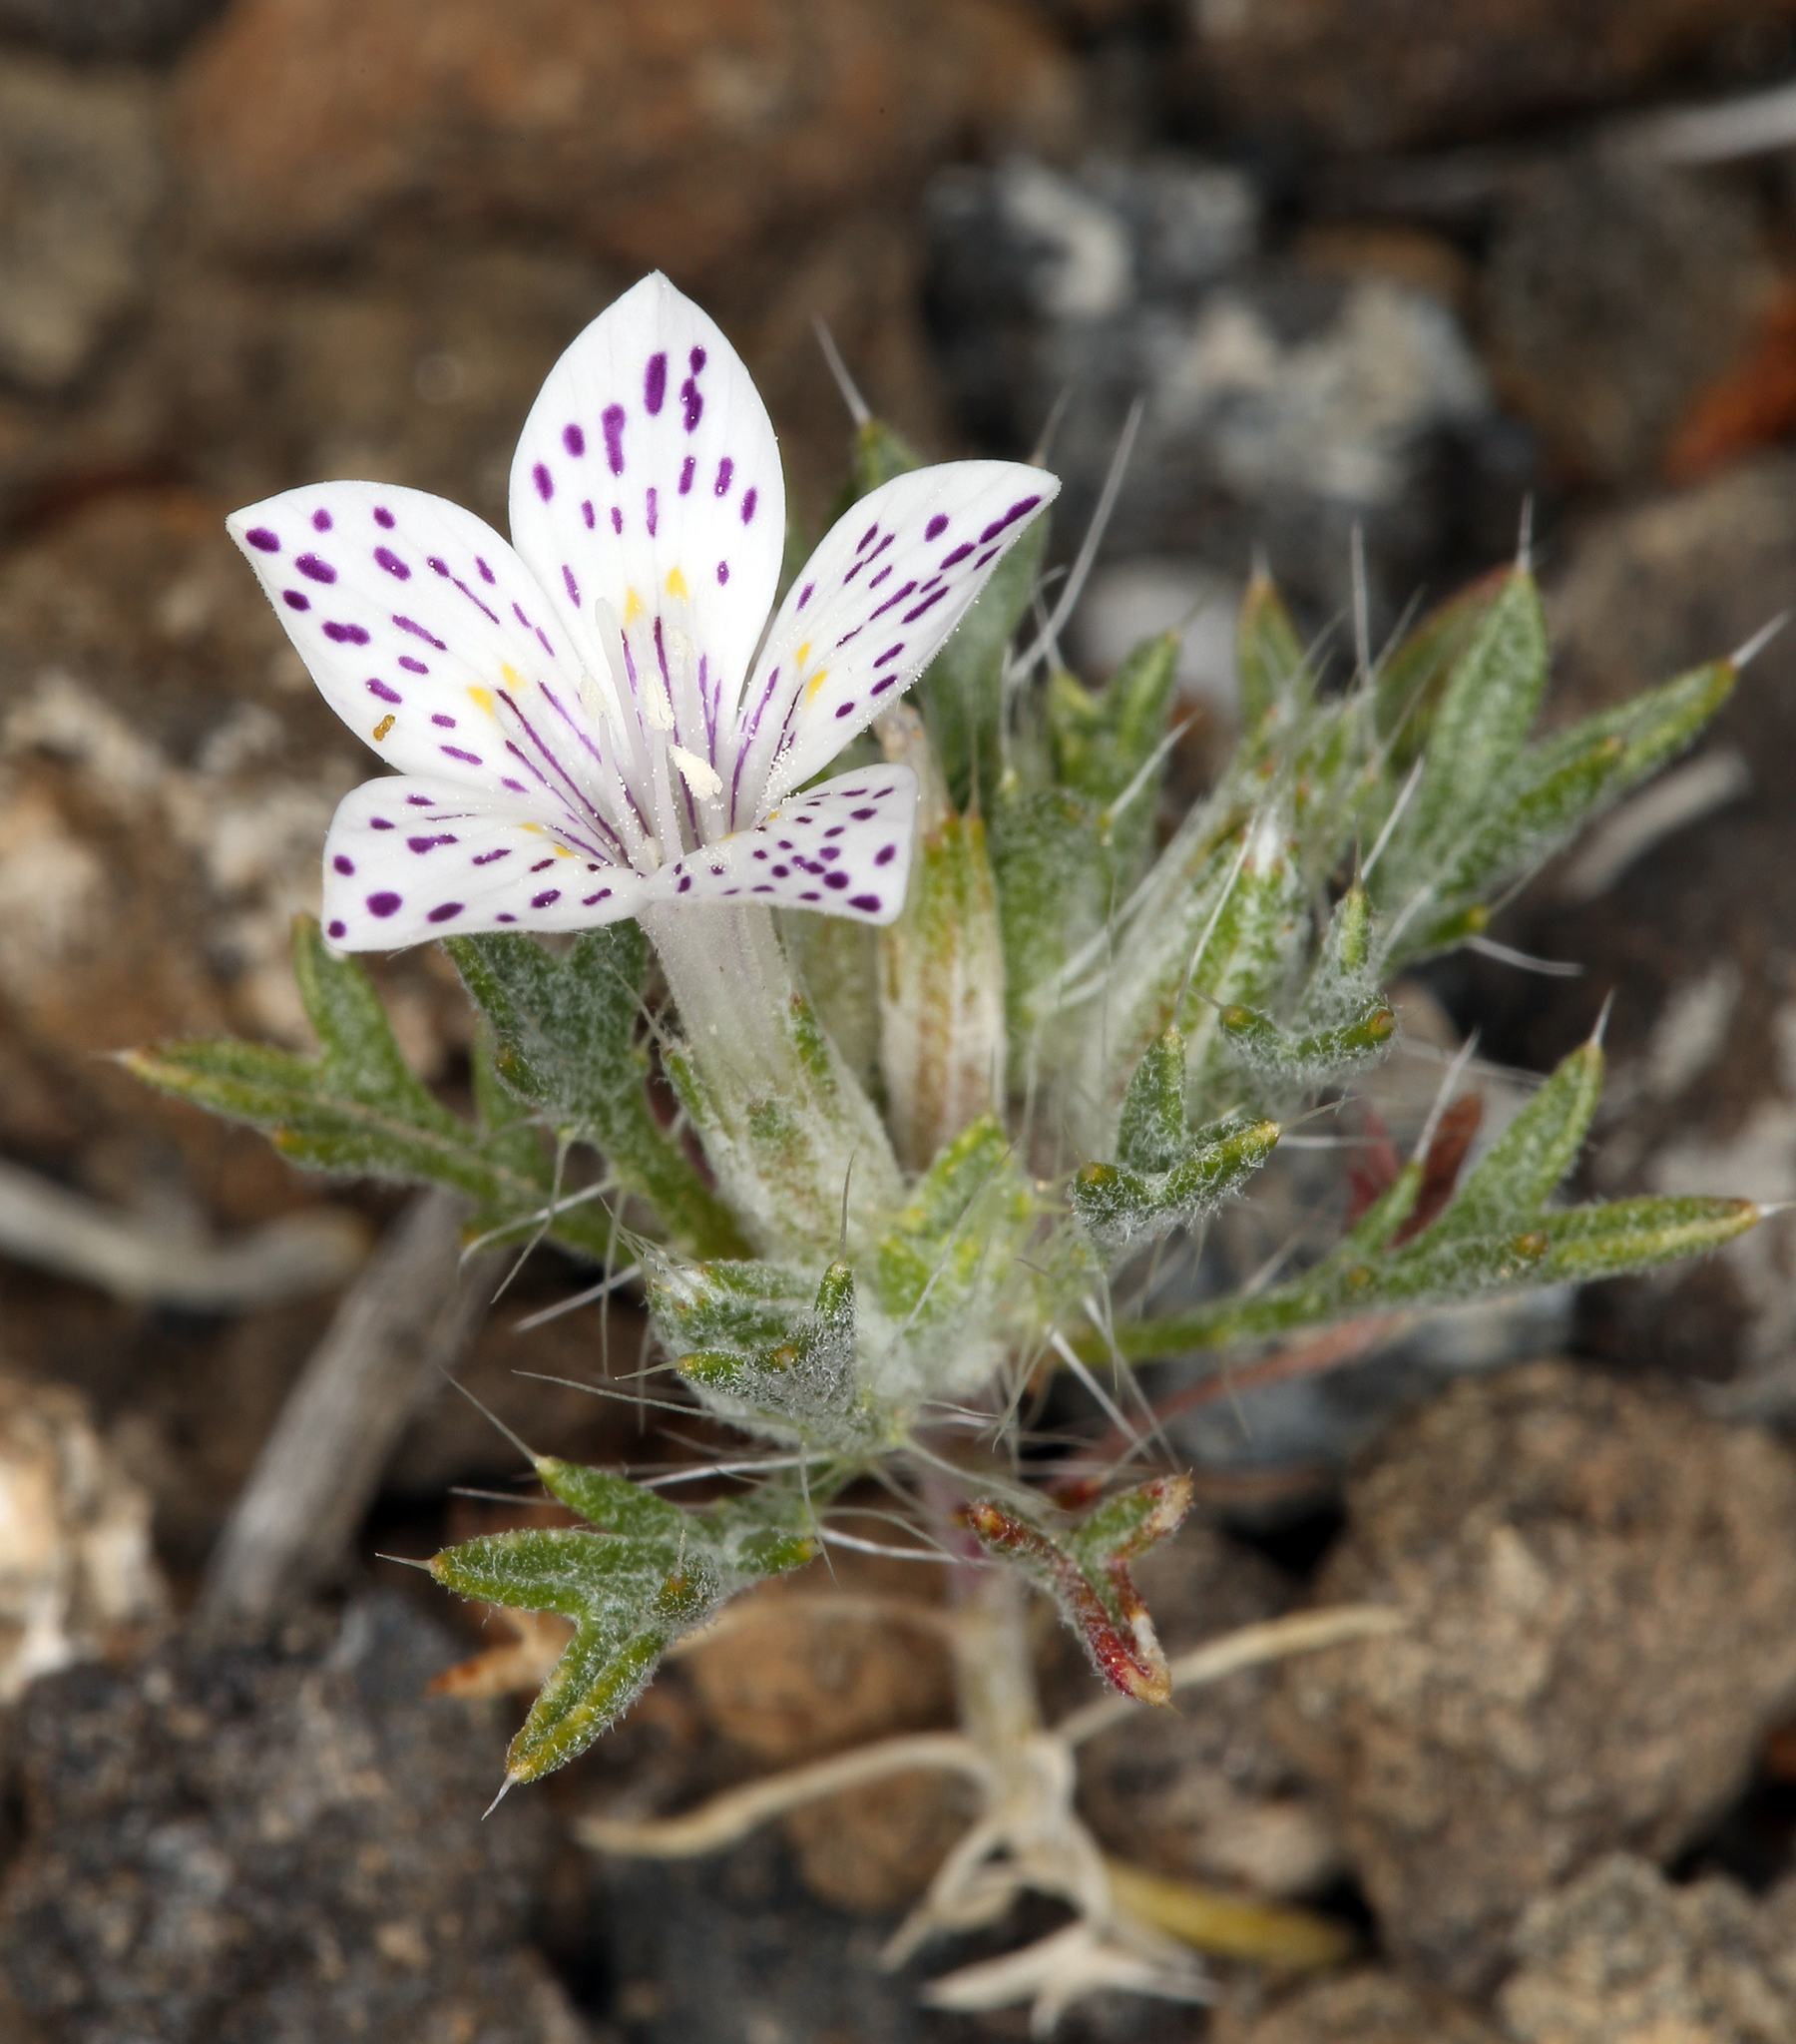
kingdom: Plantae
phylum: Tracheophyta
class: Magnoliopsida
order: Ericales
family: Polemoniaceae
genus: Langloisia
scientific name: Langloisia setosissima
